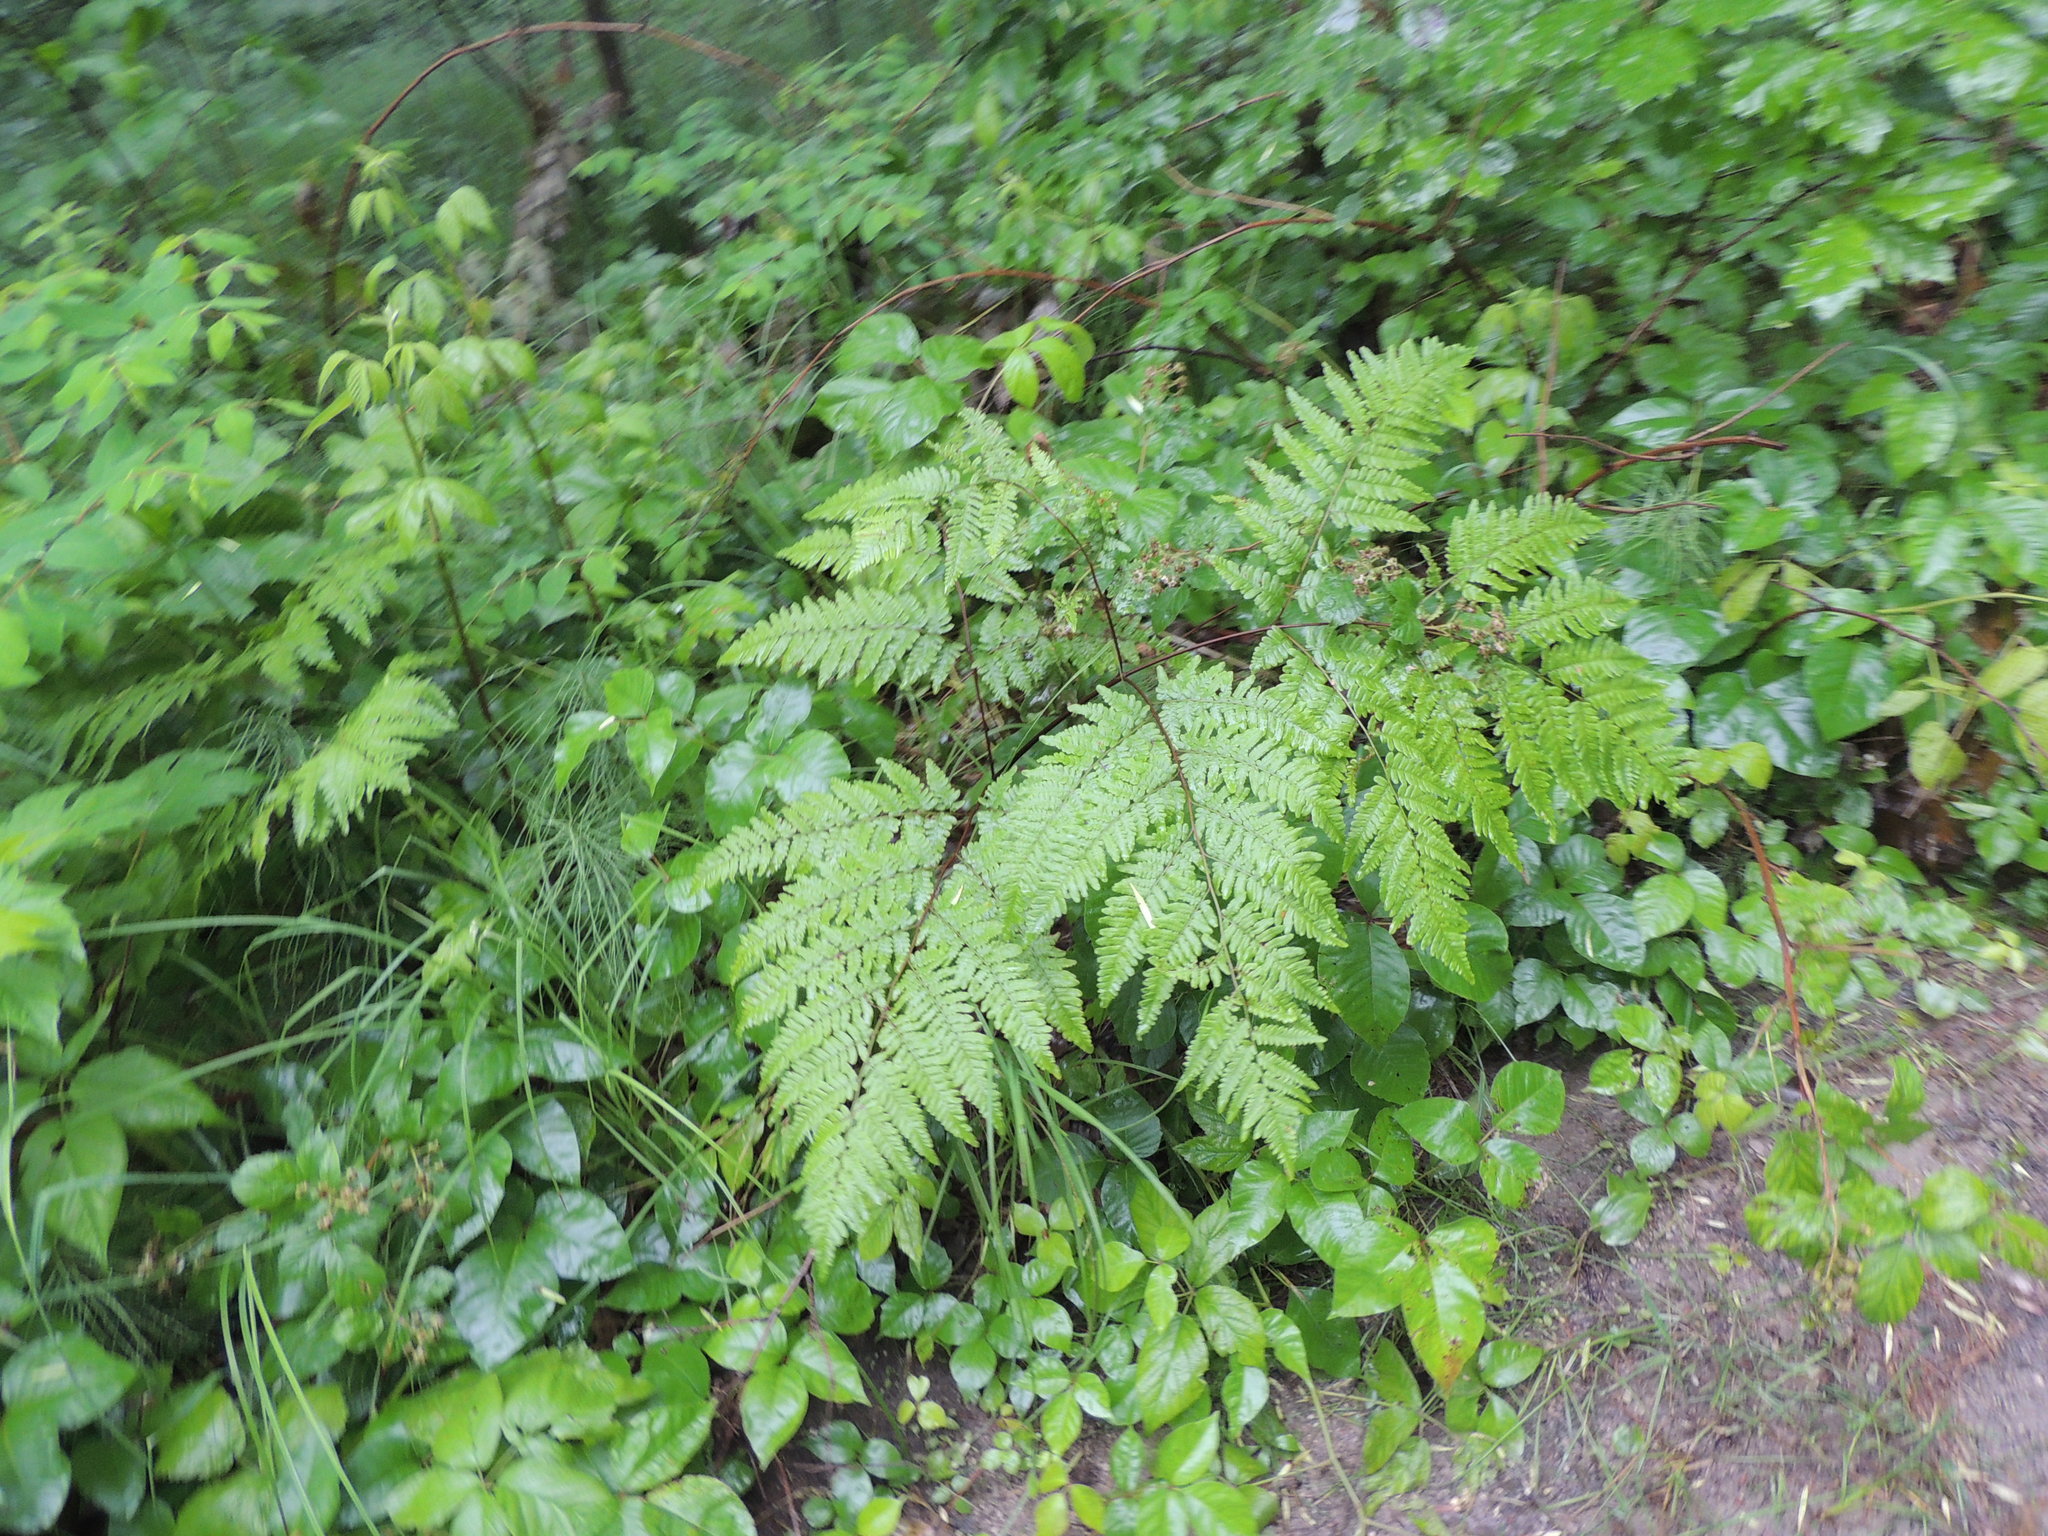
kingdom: Plantae
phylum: Tracheophyta
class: Polypodiopsida
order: Polypodiales
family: Dennstaedtiaceae
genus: Pteridium
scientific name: Pteridium aquilinum
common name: Bracken
